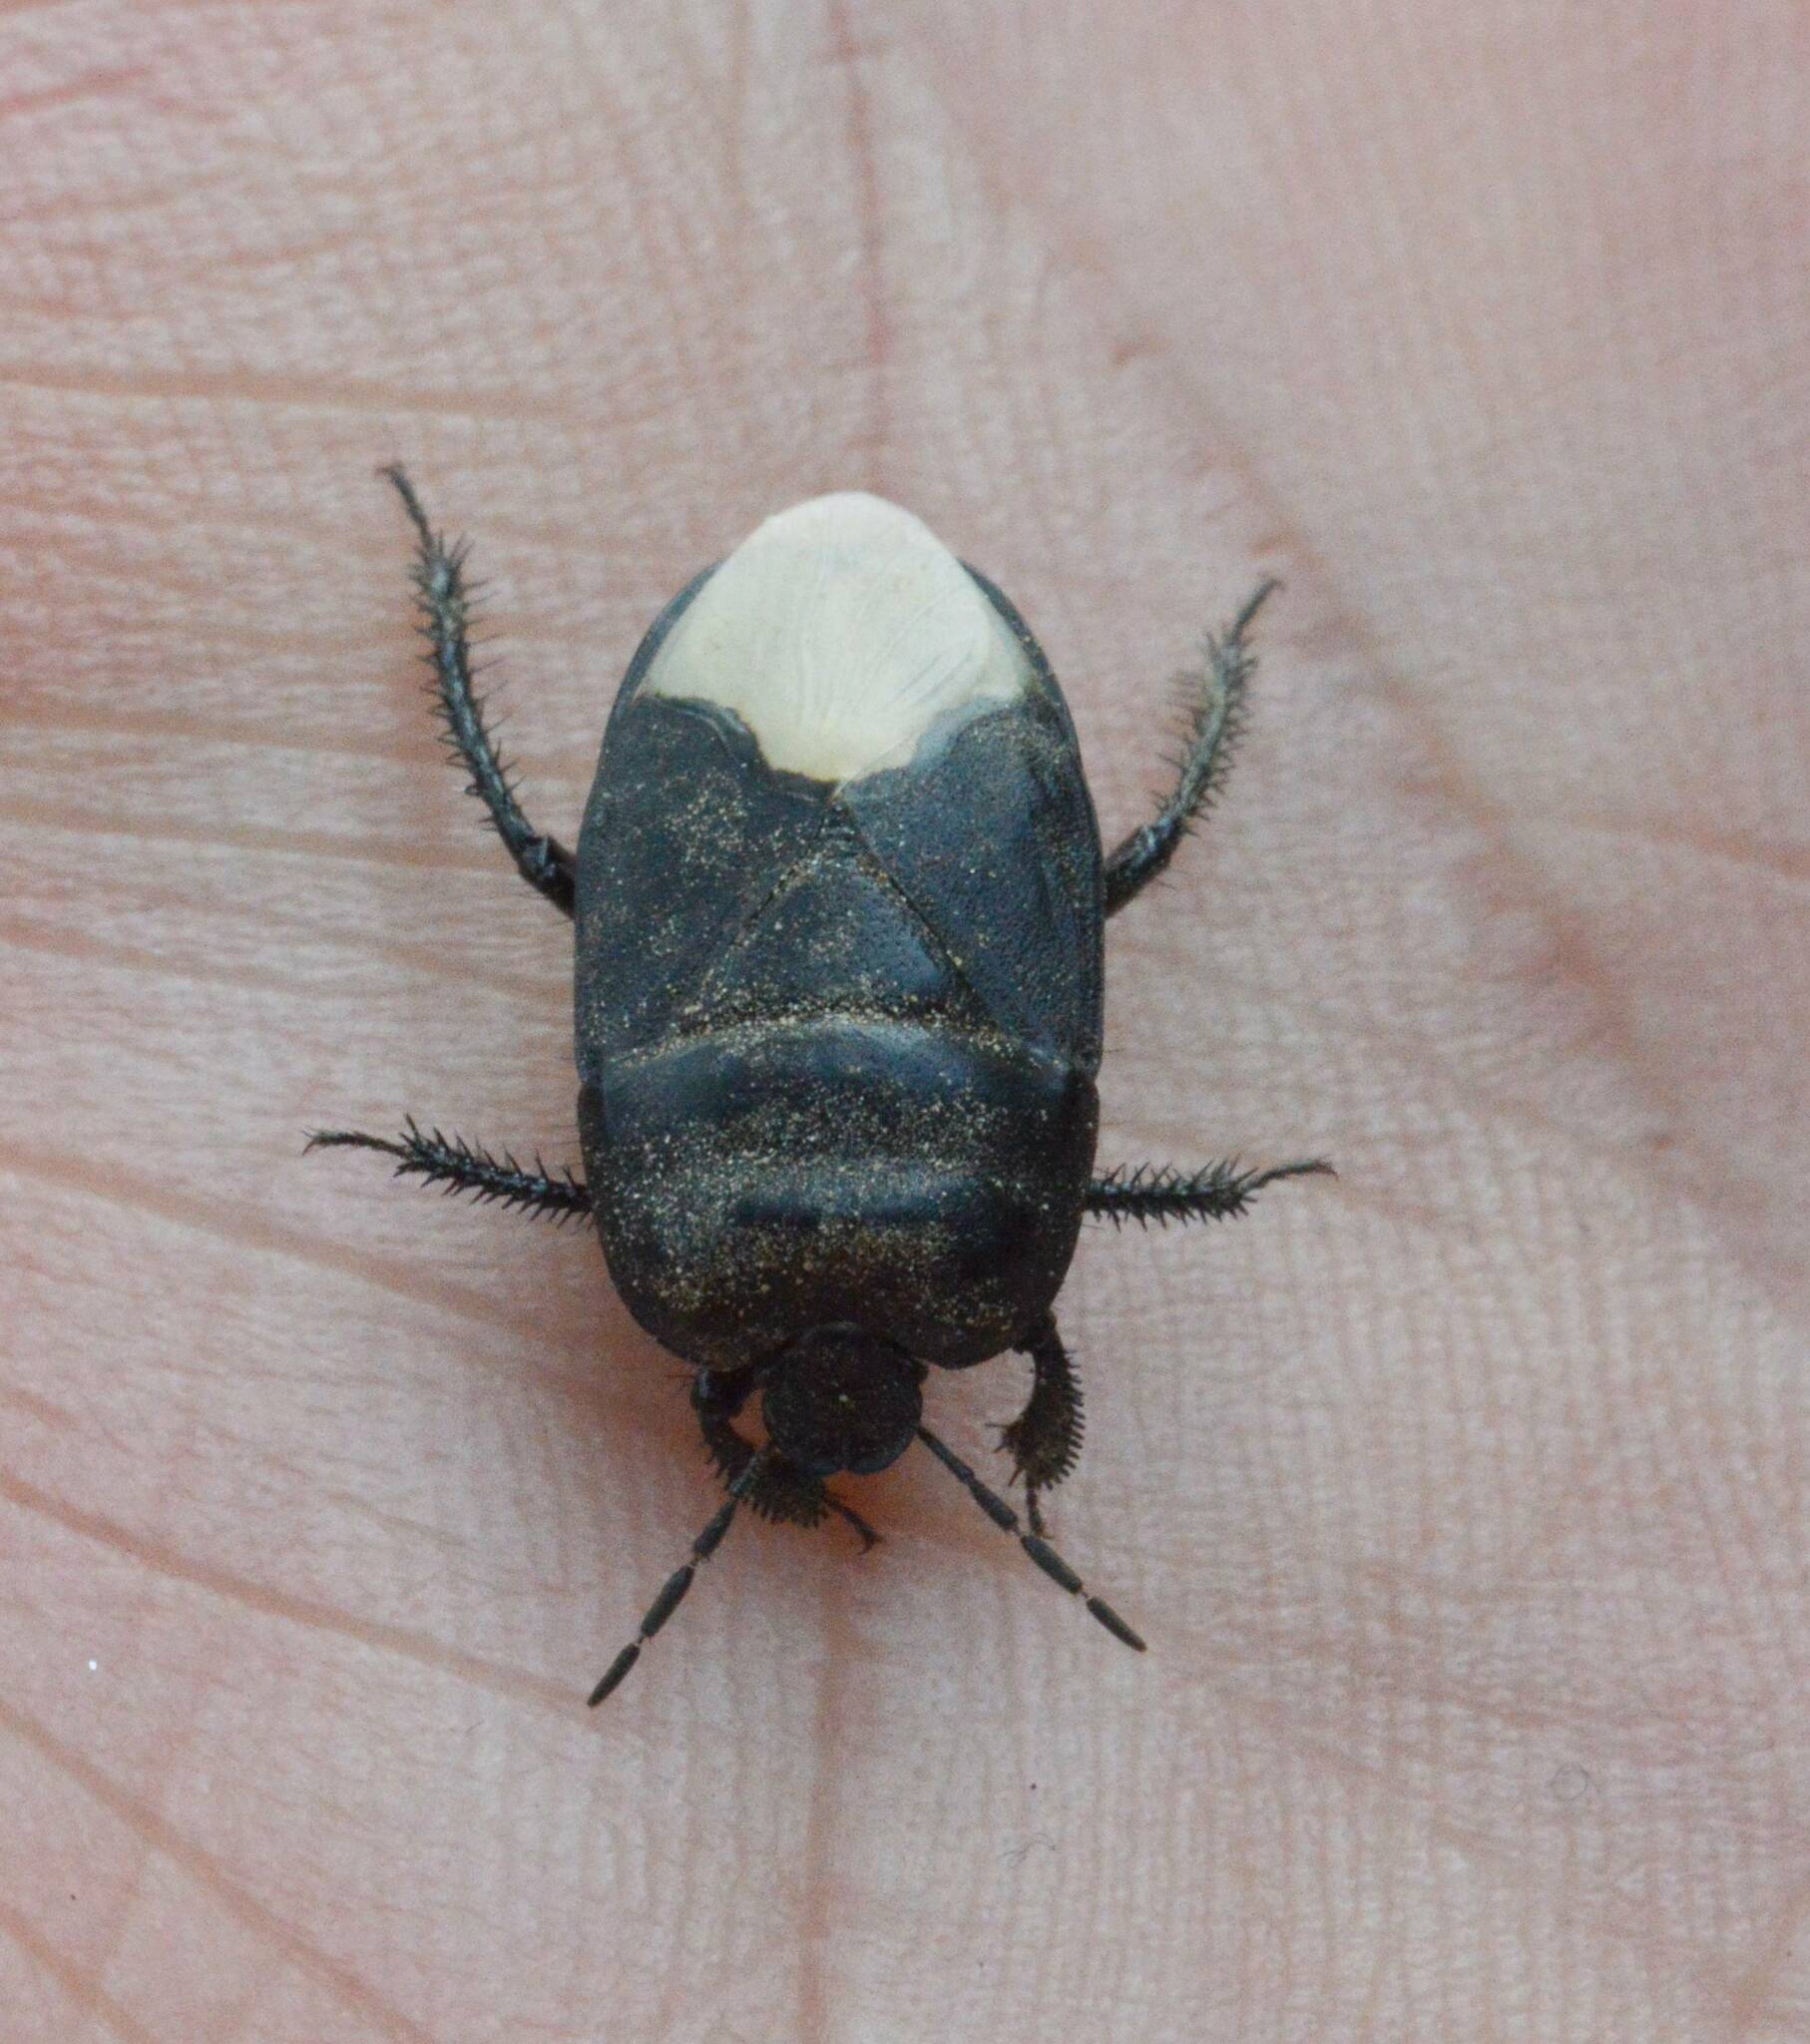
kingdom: Animalia
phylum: Arthropoda
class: Insecta
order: Hemiptera
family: Cydnidae
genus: Cydnus
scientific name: Cydnus aterrimus
